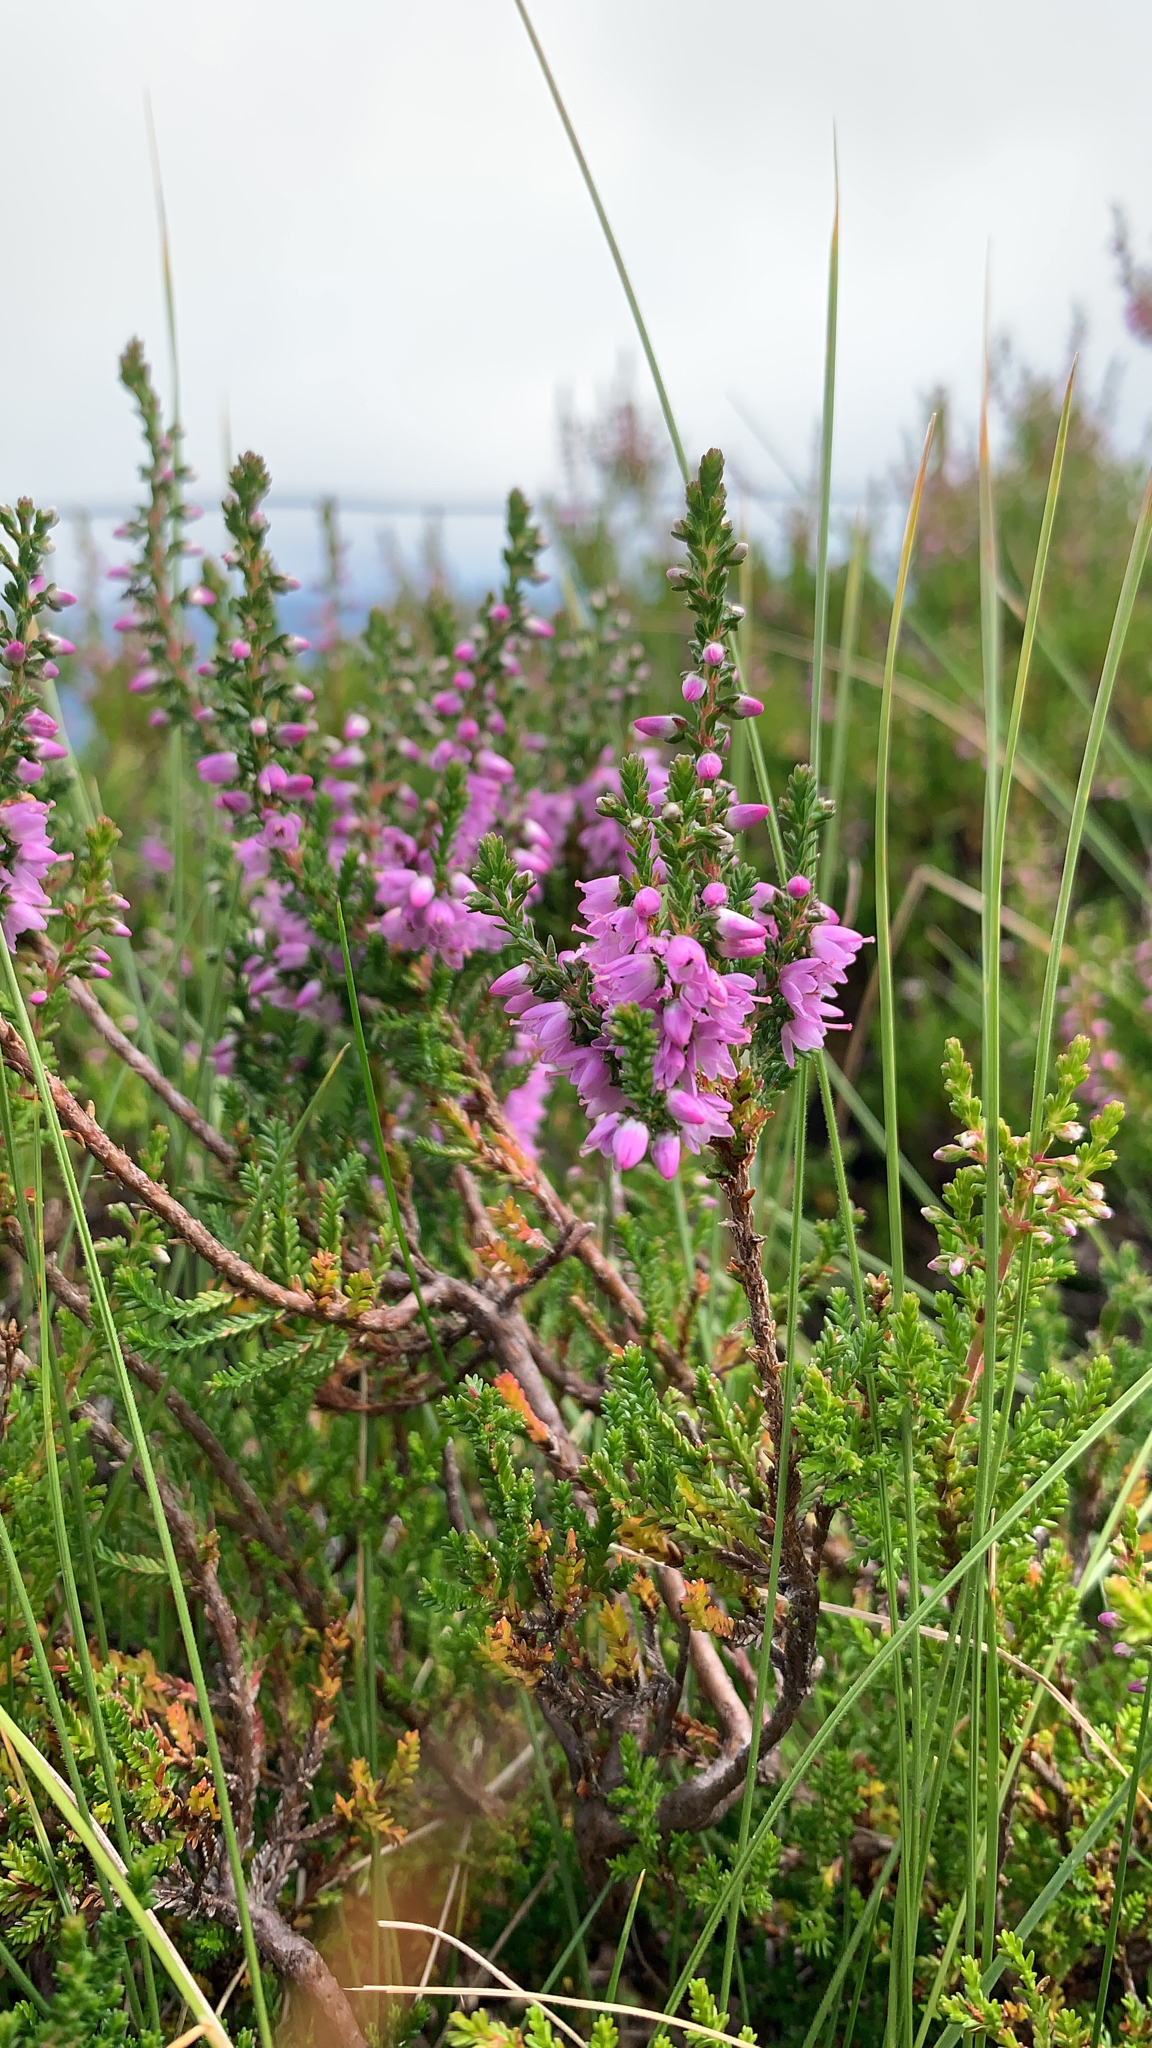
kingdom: Plantae
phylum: Tracheophyta
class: Magnoliopsida
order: Ericales
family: Ericaceae
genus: Calluna
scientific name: Calluna vulgaris
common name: Heather
